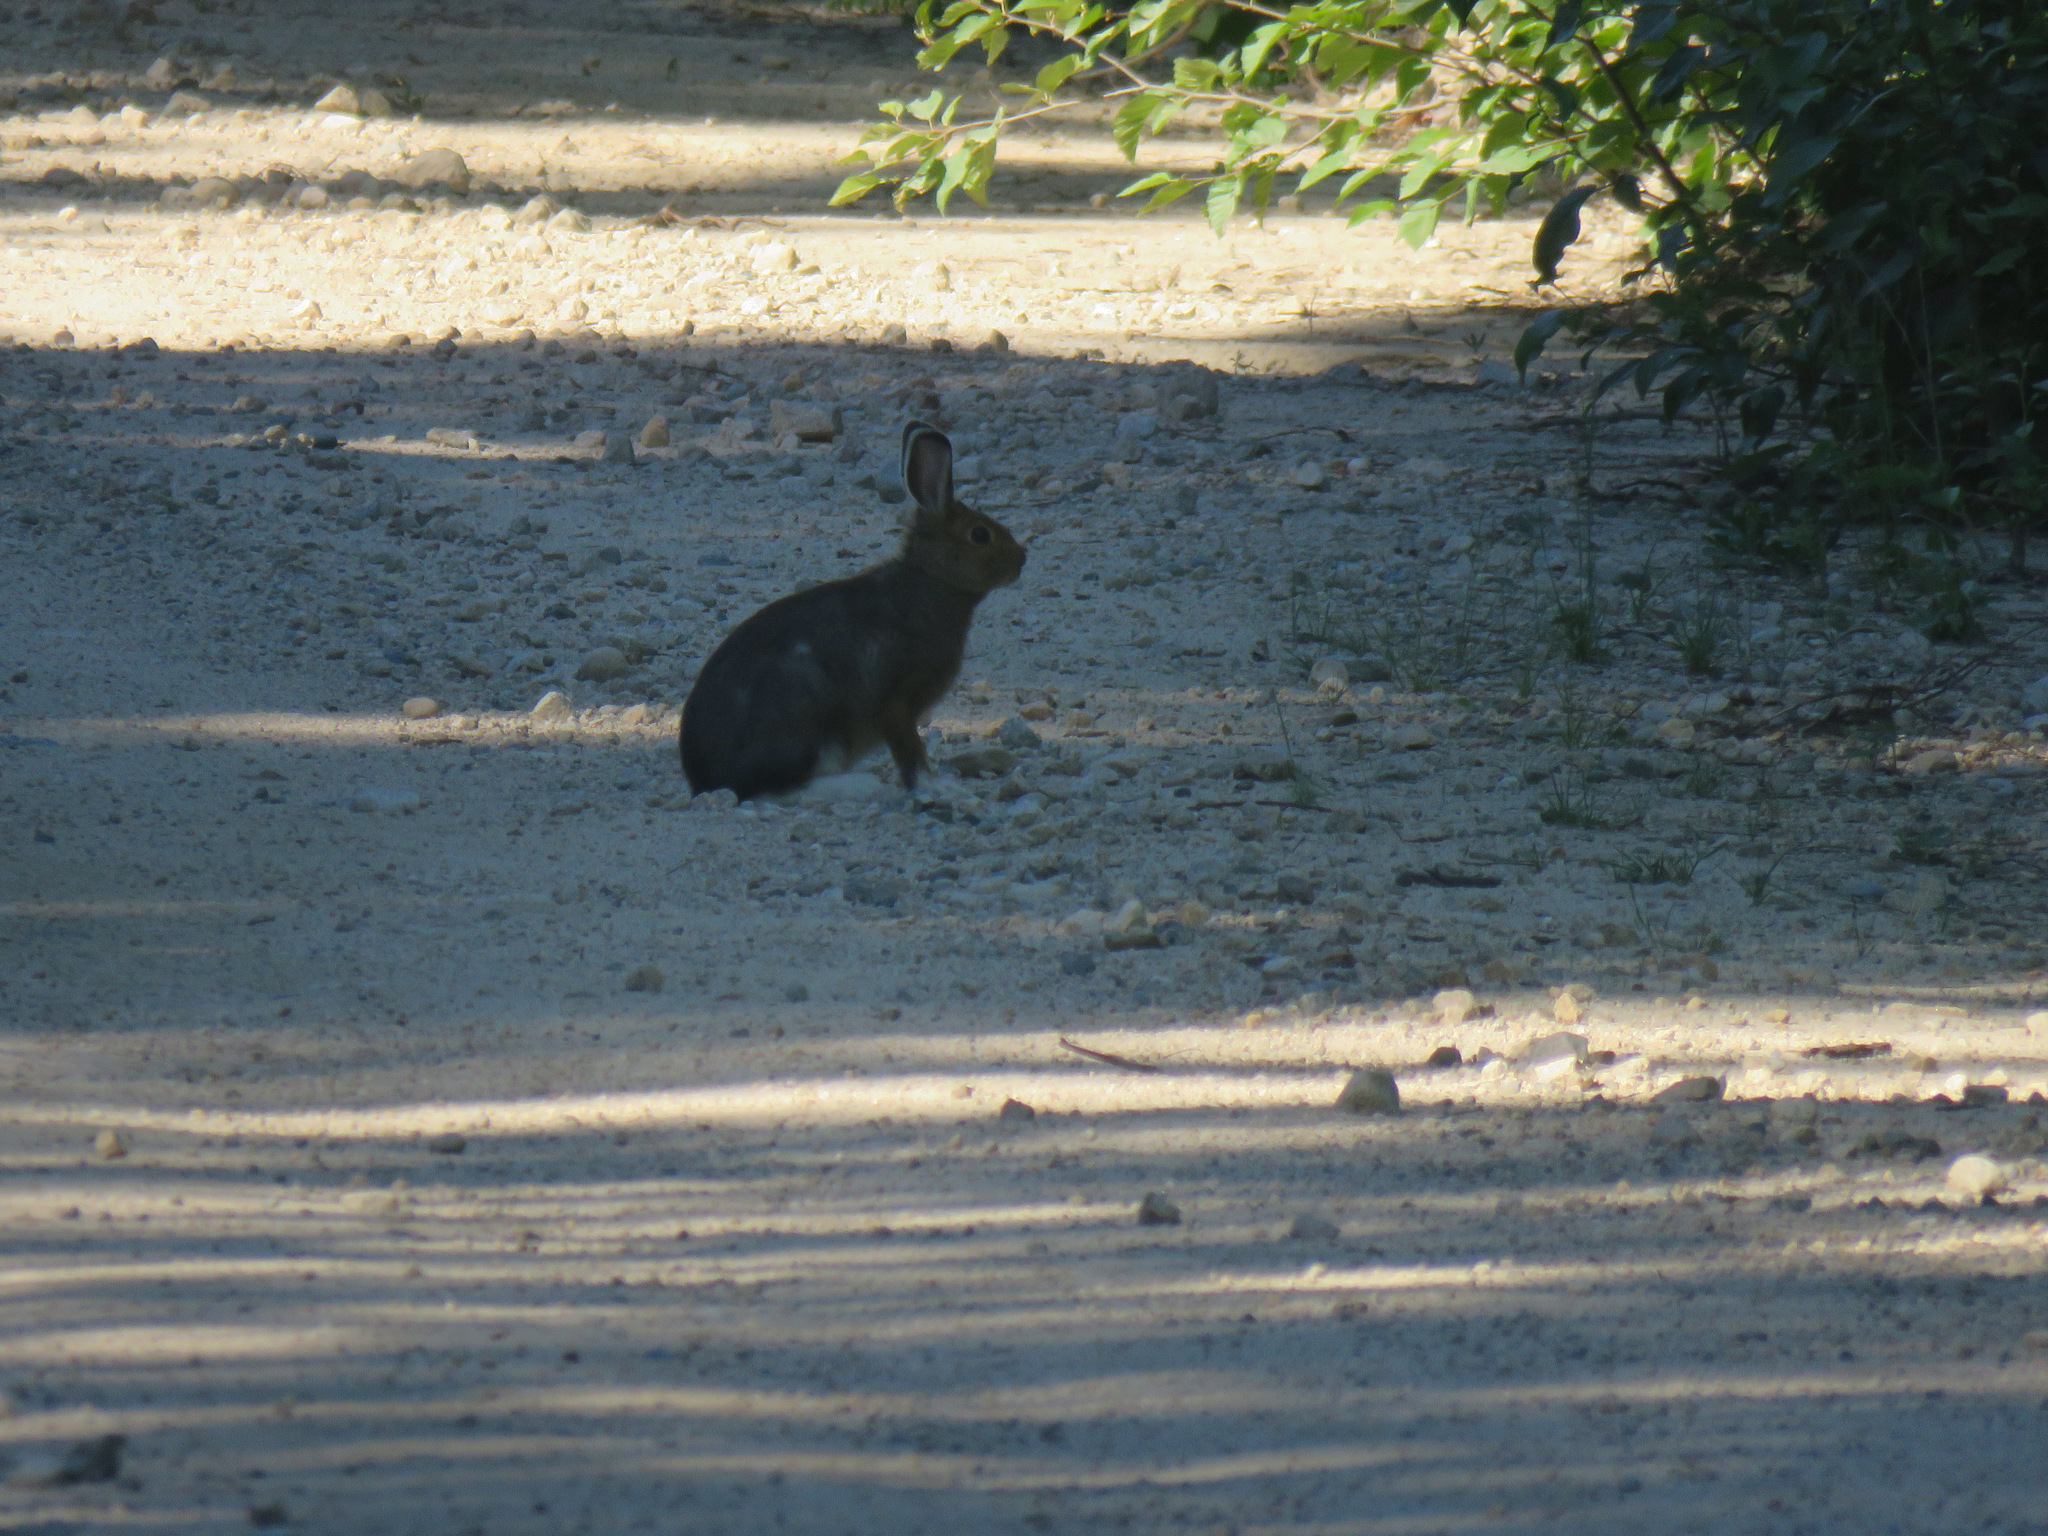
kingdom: Animalia
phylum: Chordata
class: Mammalia
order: Lagomorpha
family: Leporidae
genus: Lepus
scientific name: Lepus americanus
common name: Snowshoe hare
